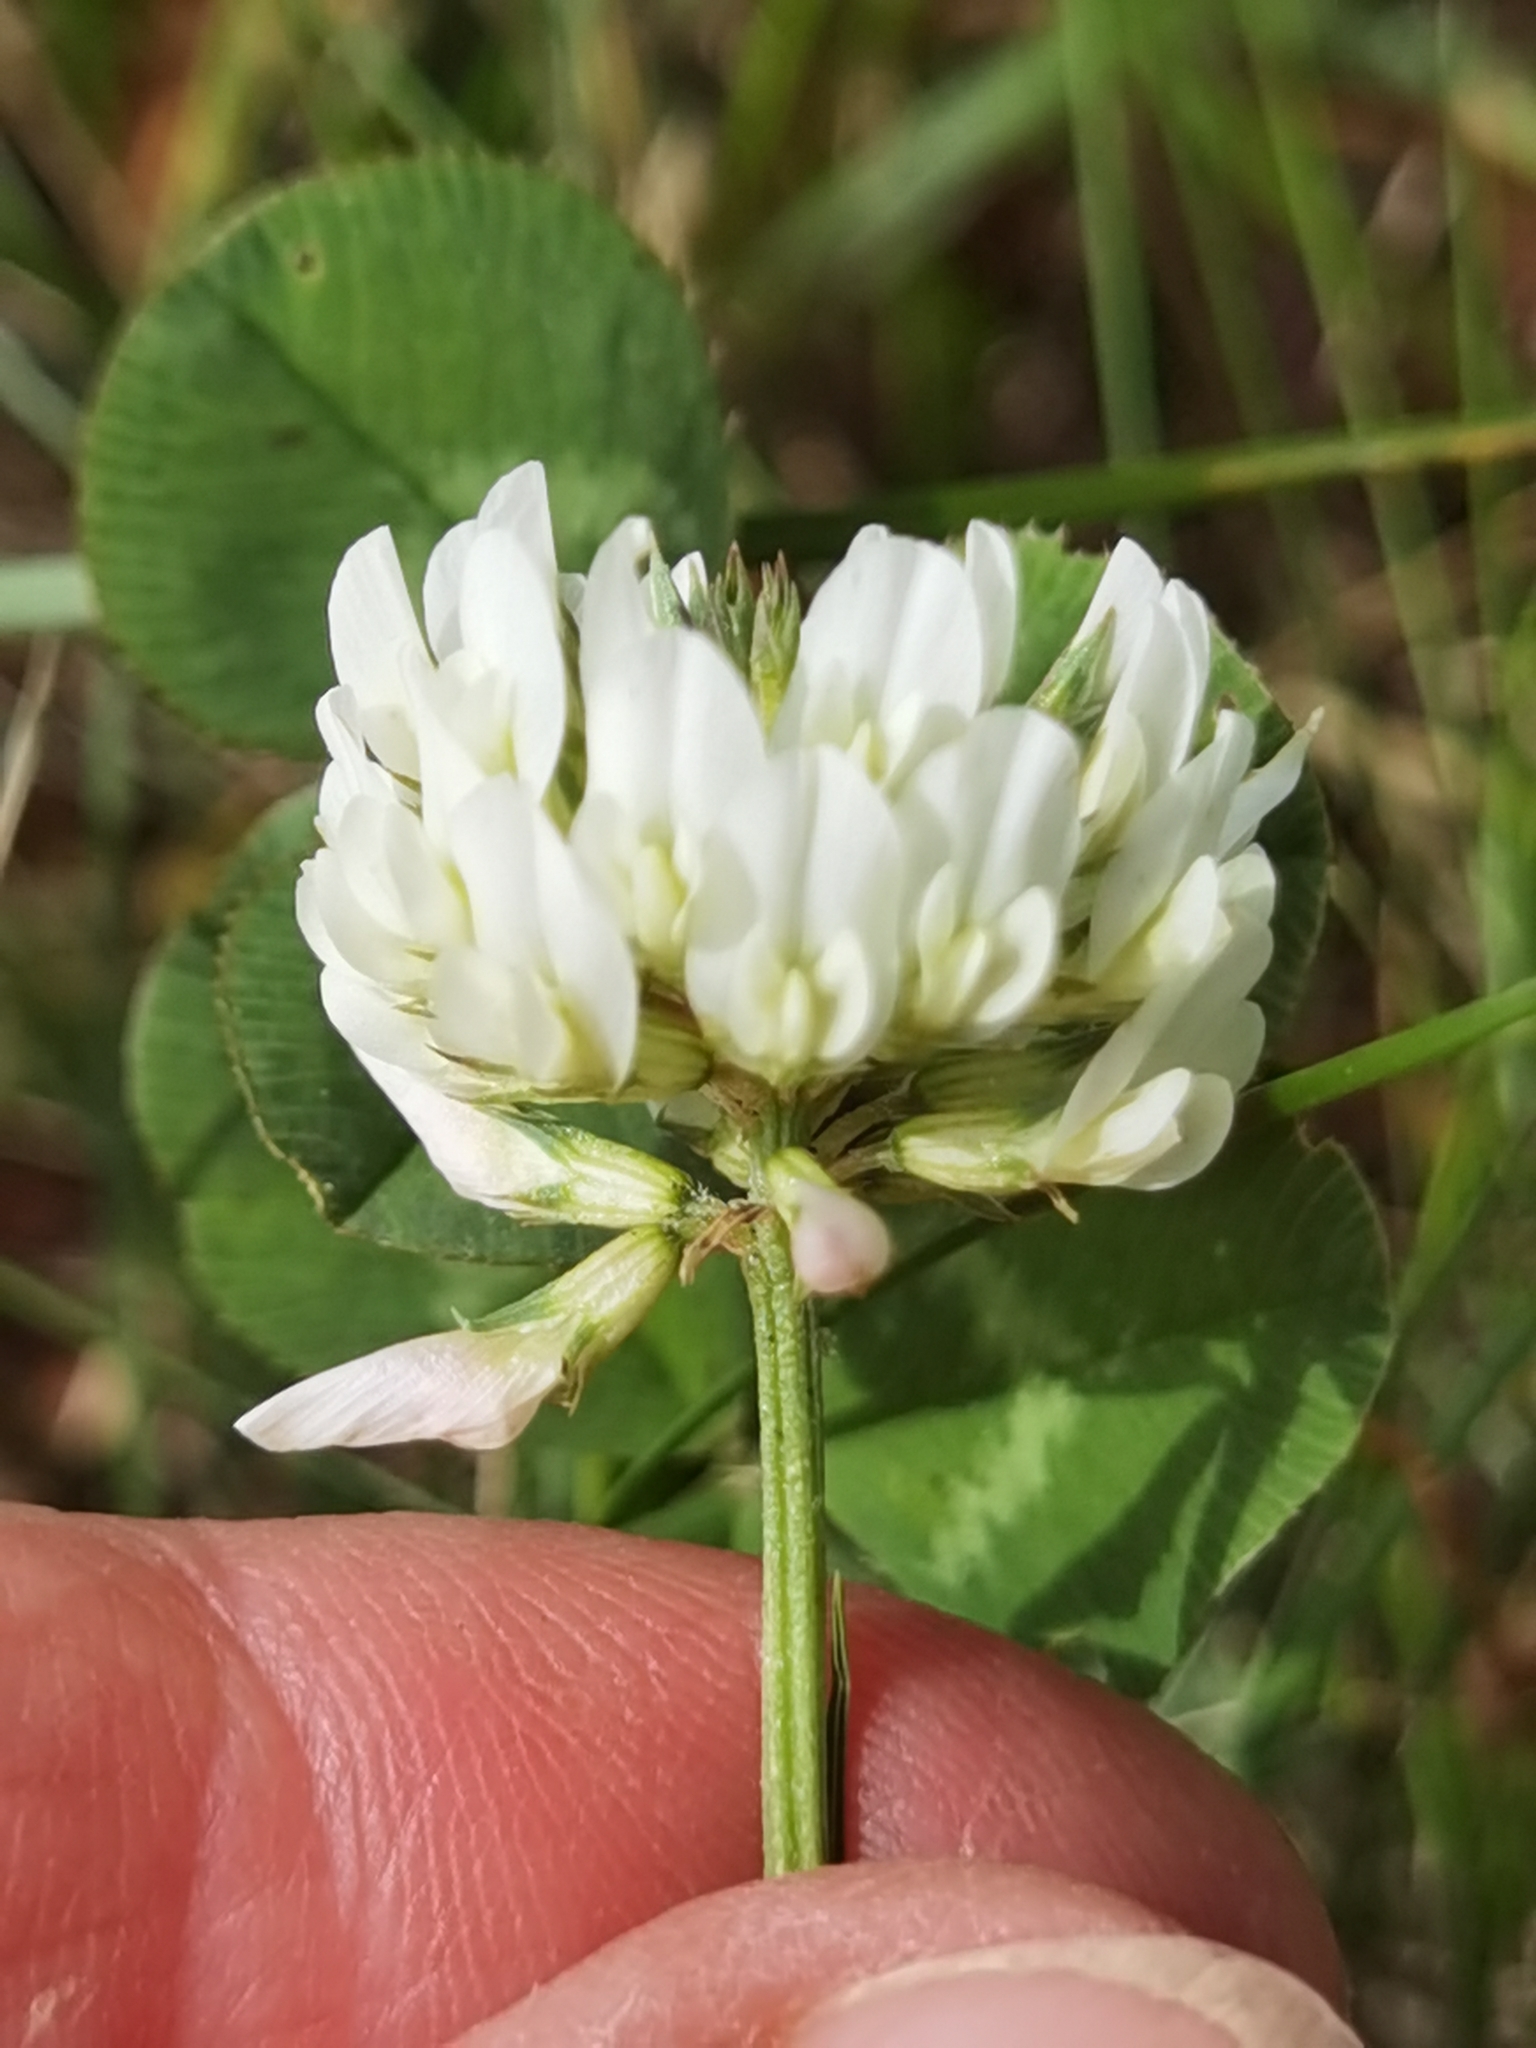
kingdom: Plantae
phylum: Tracheophyta
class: Magnoliopsida
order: Fabales
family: Fabaceae
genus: Trifolium
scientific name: Trifolium repens
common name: White clover
